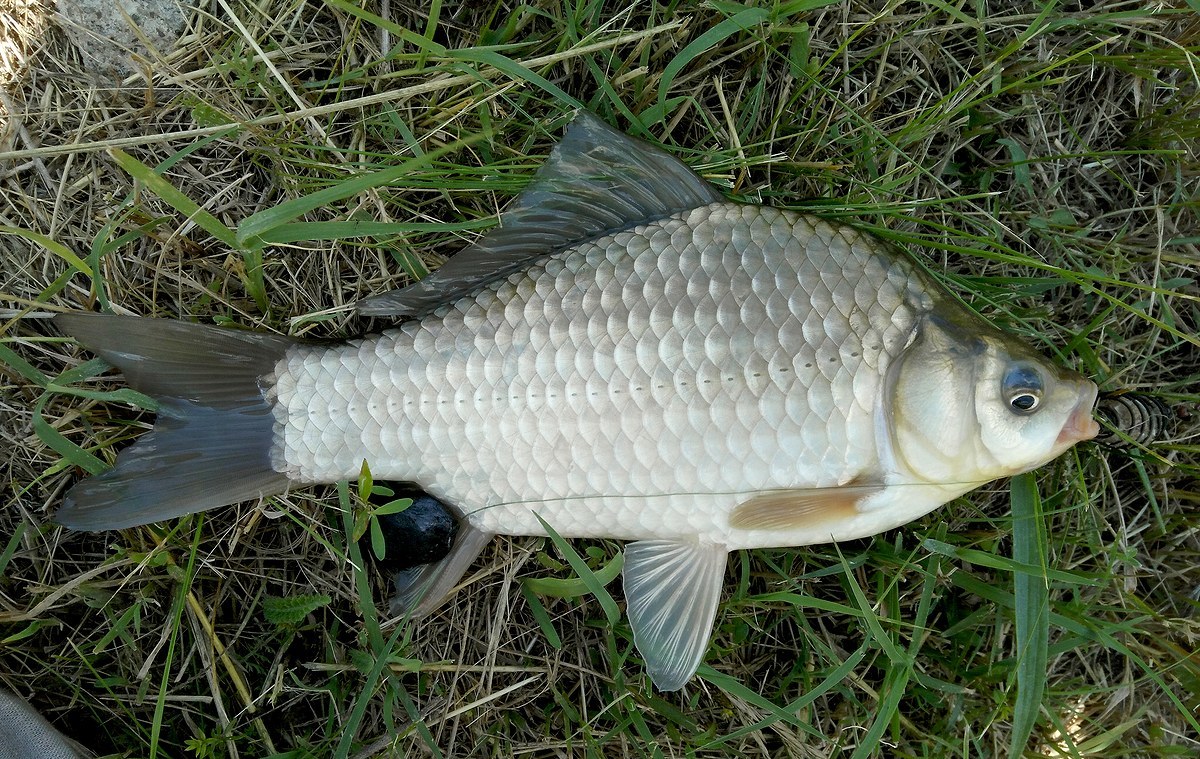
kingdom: Animalia
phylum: Chordata
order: Cypriniformes
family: Cyprinidae
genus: Carassius
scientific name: Carassius gibelio
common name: Prussian carp
